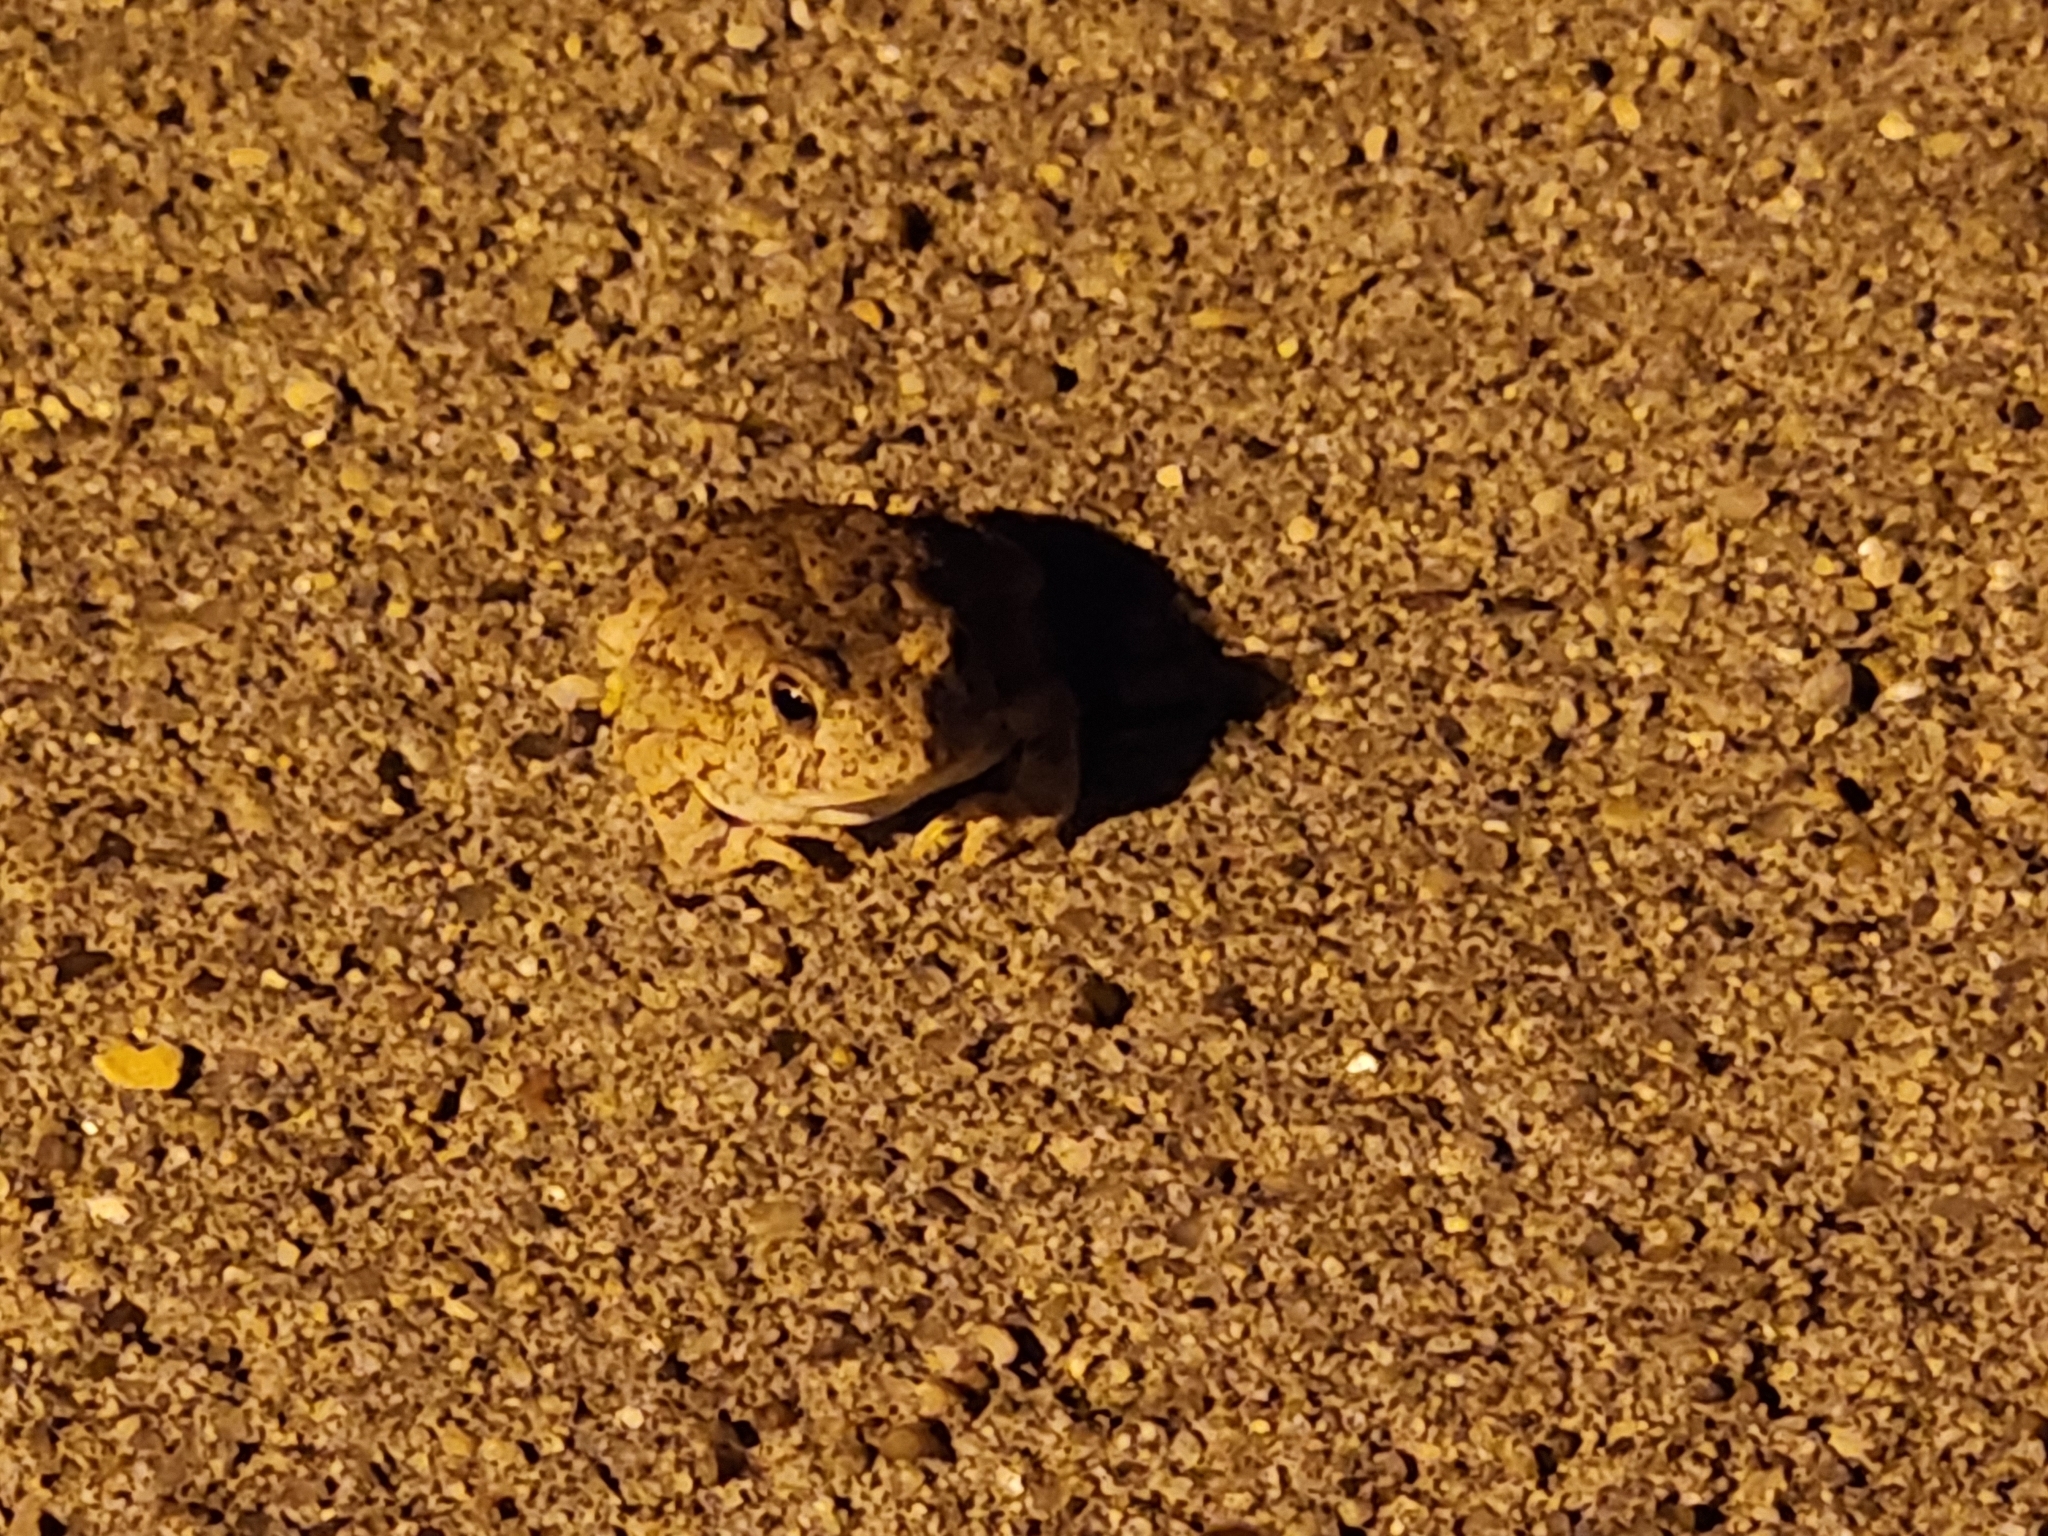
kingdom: Animalia
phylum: Chordata
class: Amphibia
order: Anura
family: Bufonidae
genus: Anaxyrus
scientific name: Anaxyrus woodhousii
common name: Woodhouse's toad
